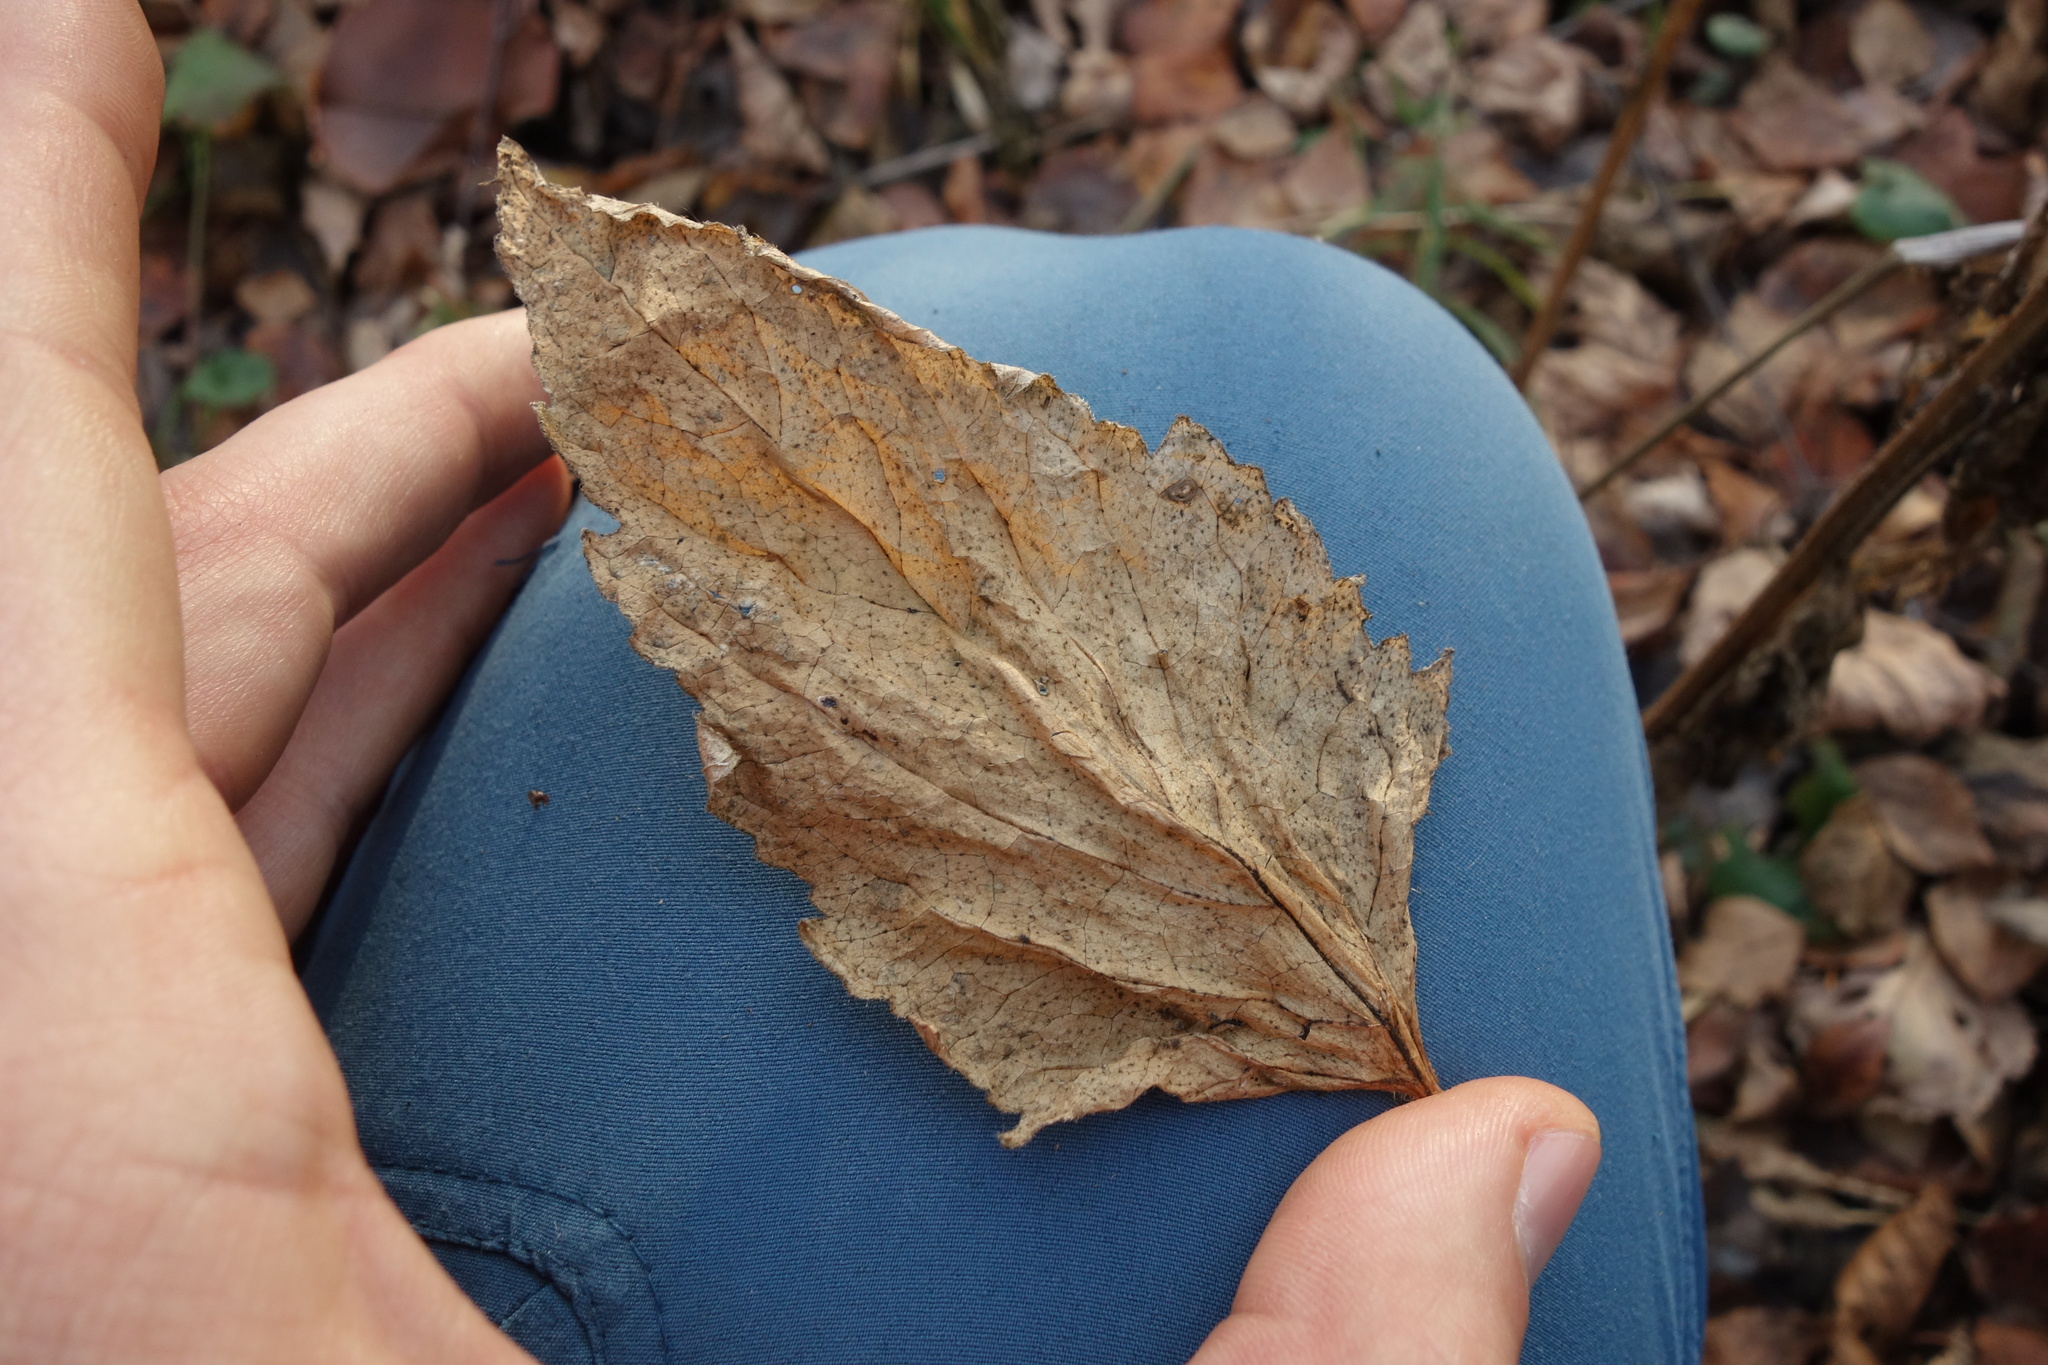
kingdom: Plantae
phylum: Tracheophyta
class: Magnoliopsida
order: Asterales
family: Campanulaceae
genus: Campanula
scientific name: Campanula trachelium
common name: Nettle-leaved bellflower
